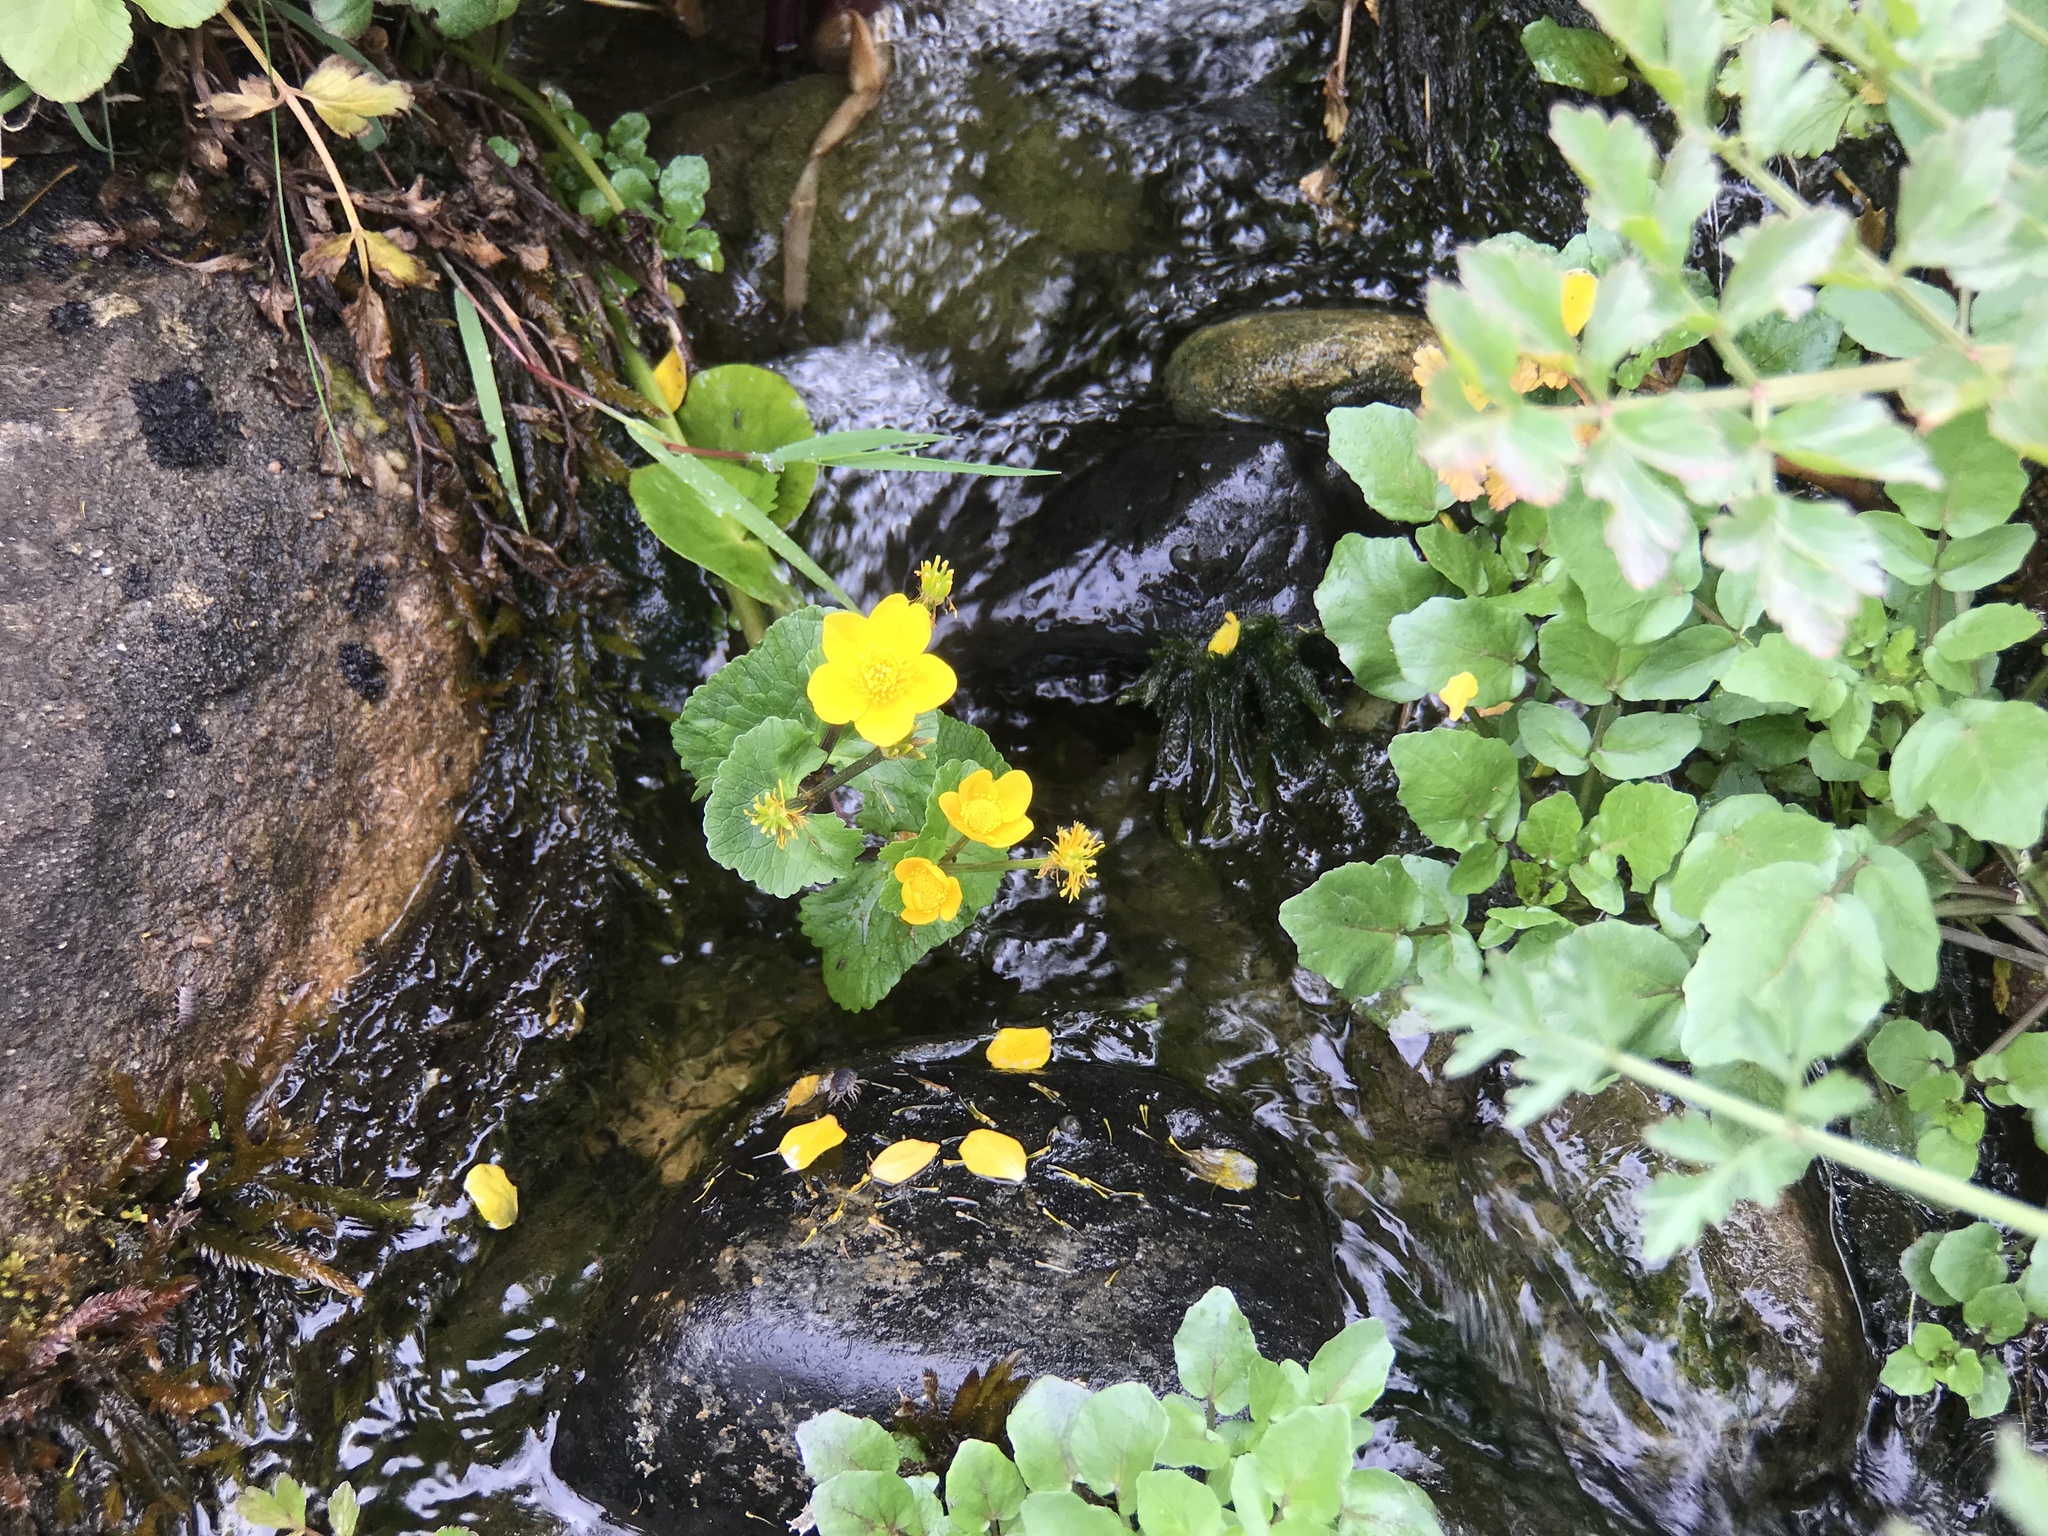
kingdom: Plantae
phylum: Tracheophyta
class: Magnoliopsida
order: Ranunculales
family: Ranunculaceae
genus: Caltha
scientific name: Caltha palustris
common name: Marsh marigold
